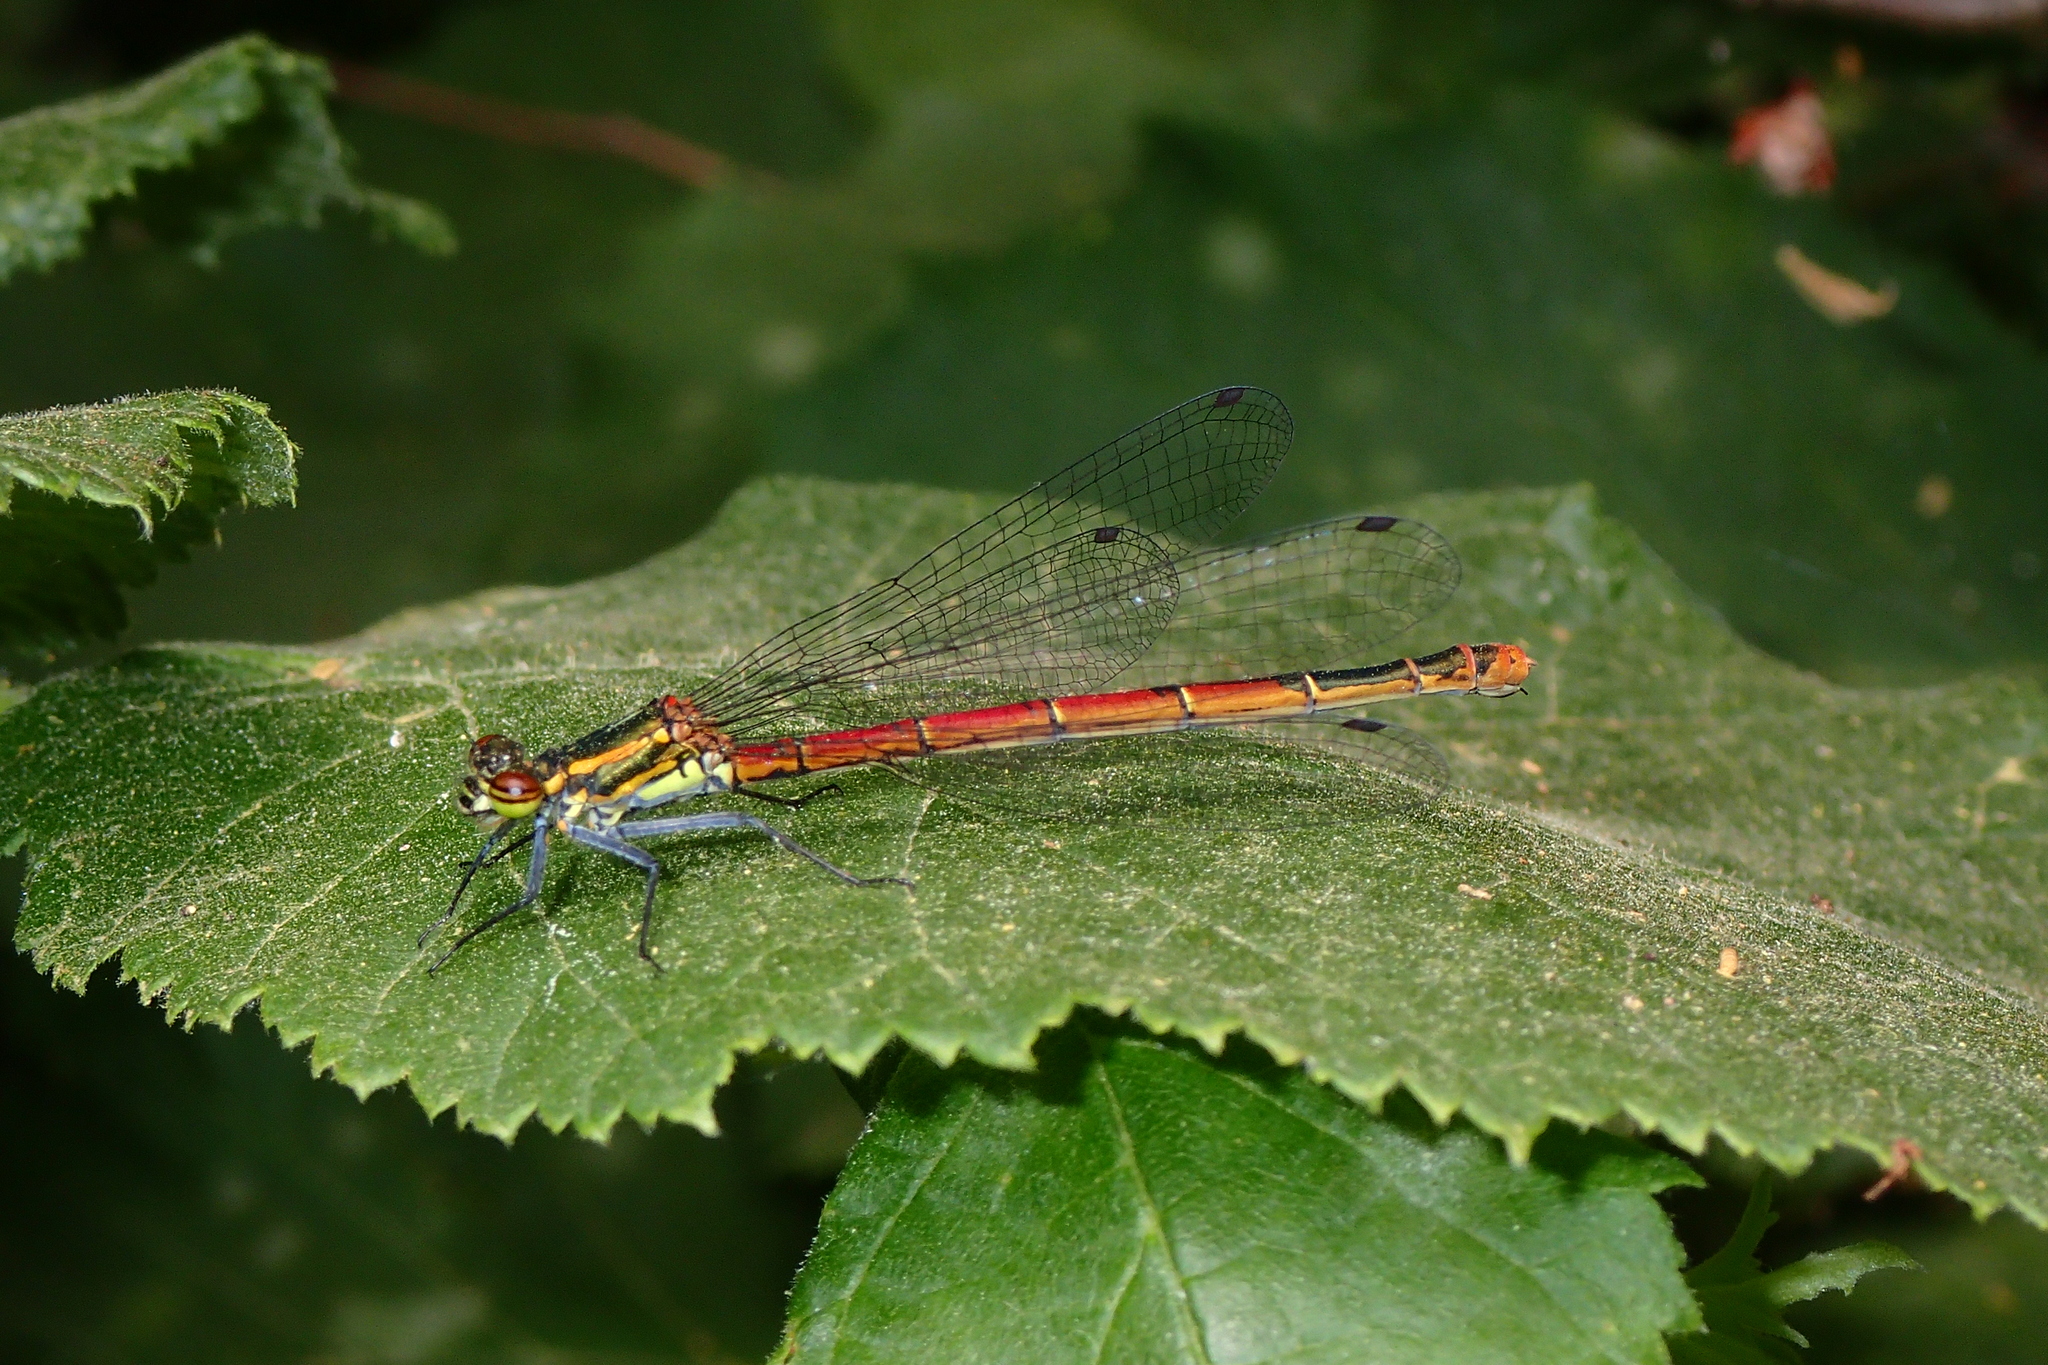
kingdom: Animalia
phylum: Arthropoda
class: Insecta
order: Odonata
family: Coenagrionidae
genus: Pyrrhosoma
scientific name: Pyrrhosoma nymphula
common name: Large red damsel
